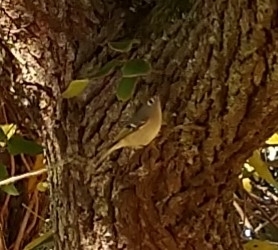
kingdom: Animalia
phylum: Chordata
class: Aves
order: Passeriformes
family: Regulidae
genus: Regulus
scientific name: Regulus calendula
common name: Ruby-crowned kinglet
